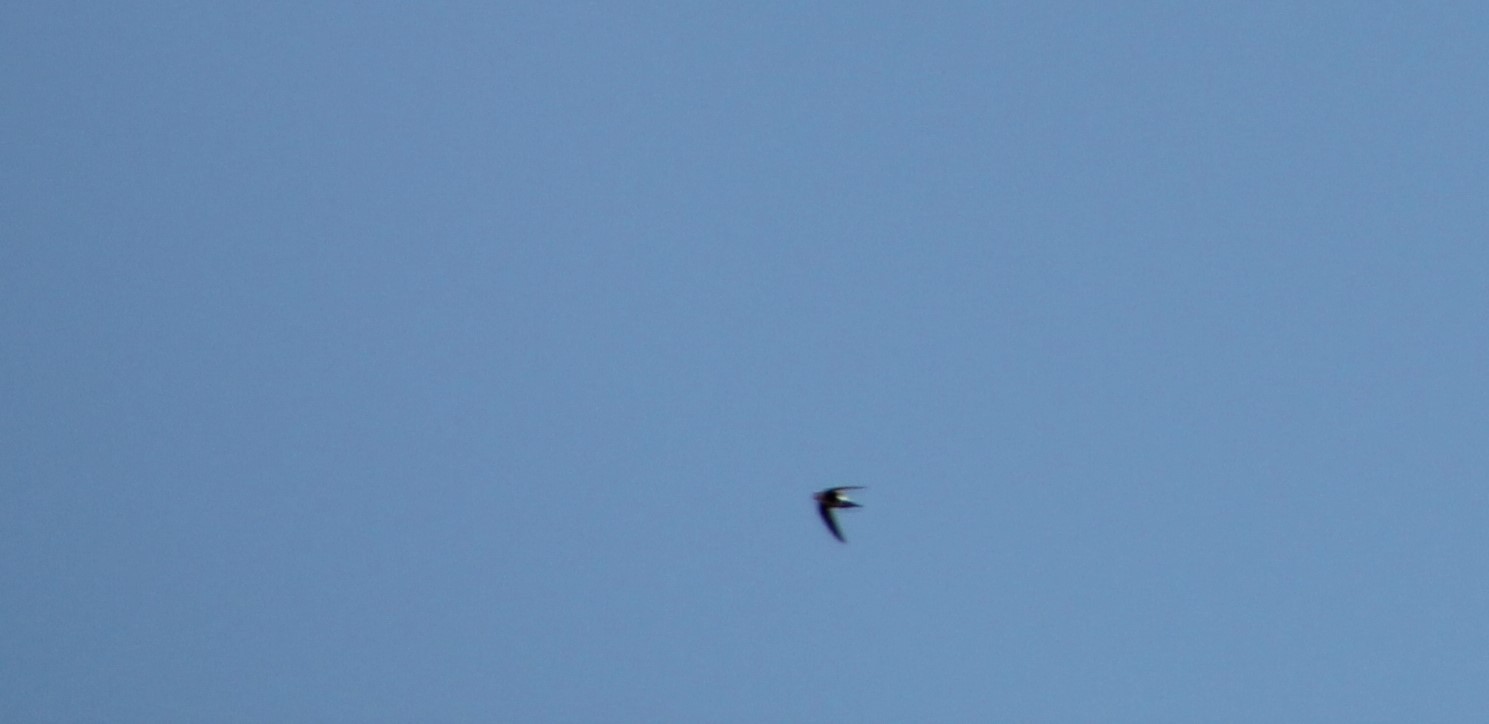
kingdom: Animalia
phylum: Chordata
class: Aves
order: Apodiformes
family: Apodidae
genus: Aeronautes
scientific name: Aeronautes saxatalis
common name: White-throated swift
